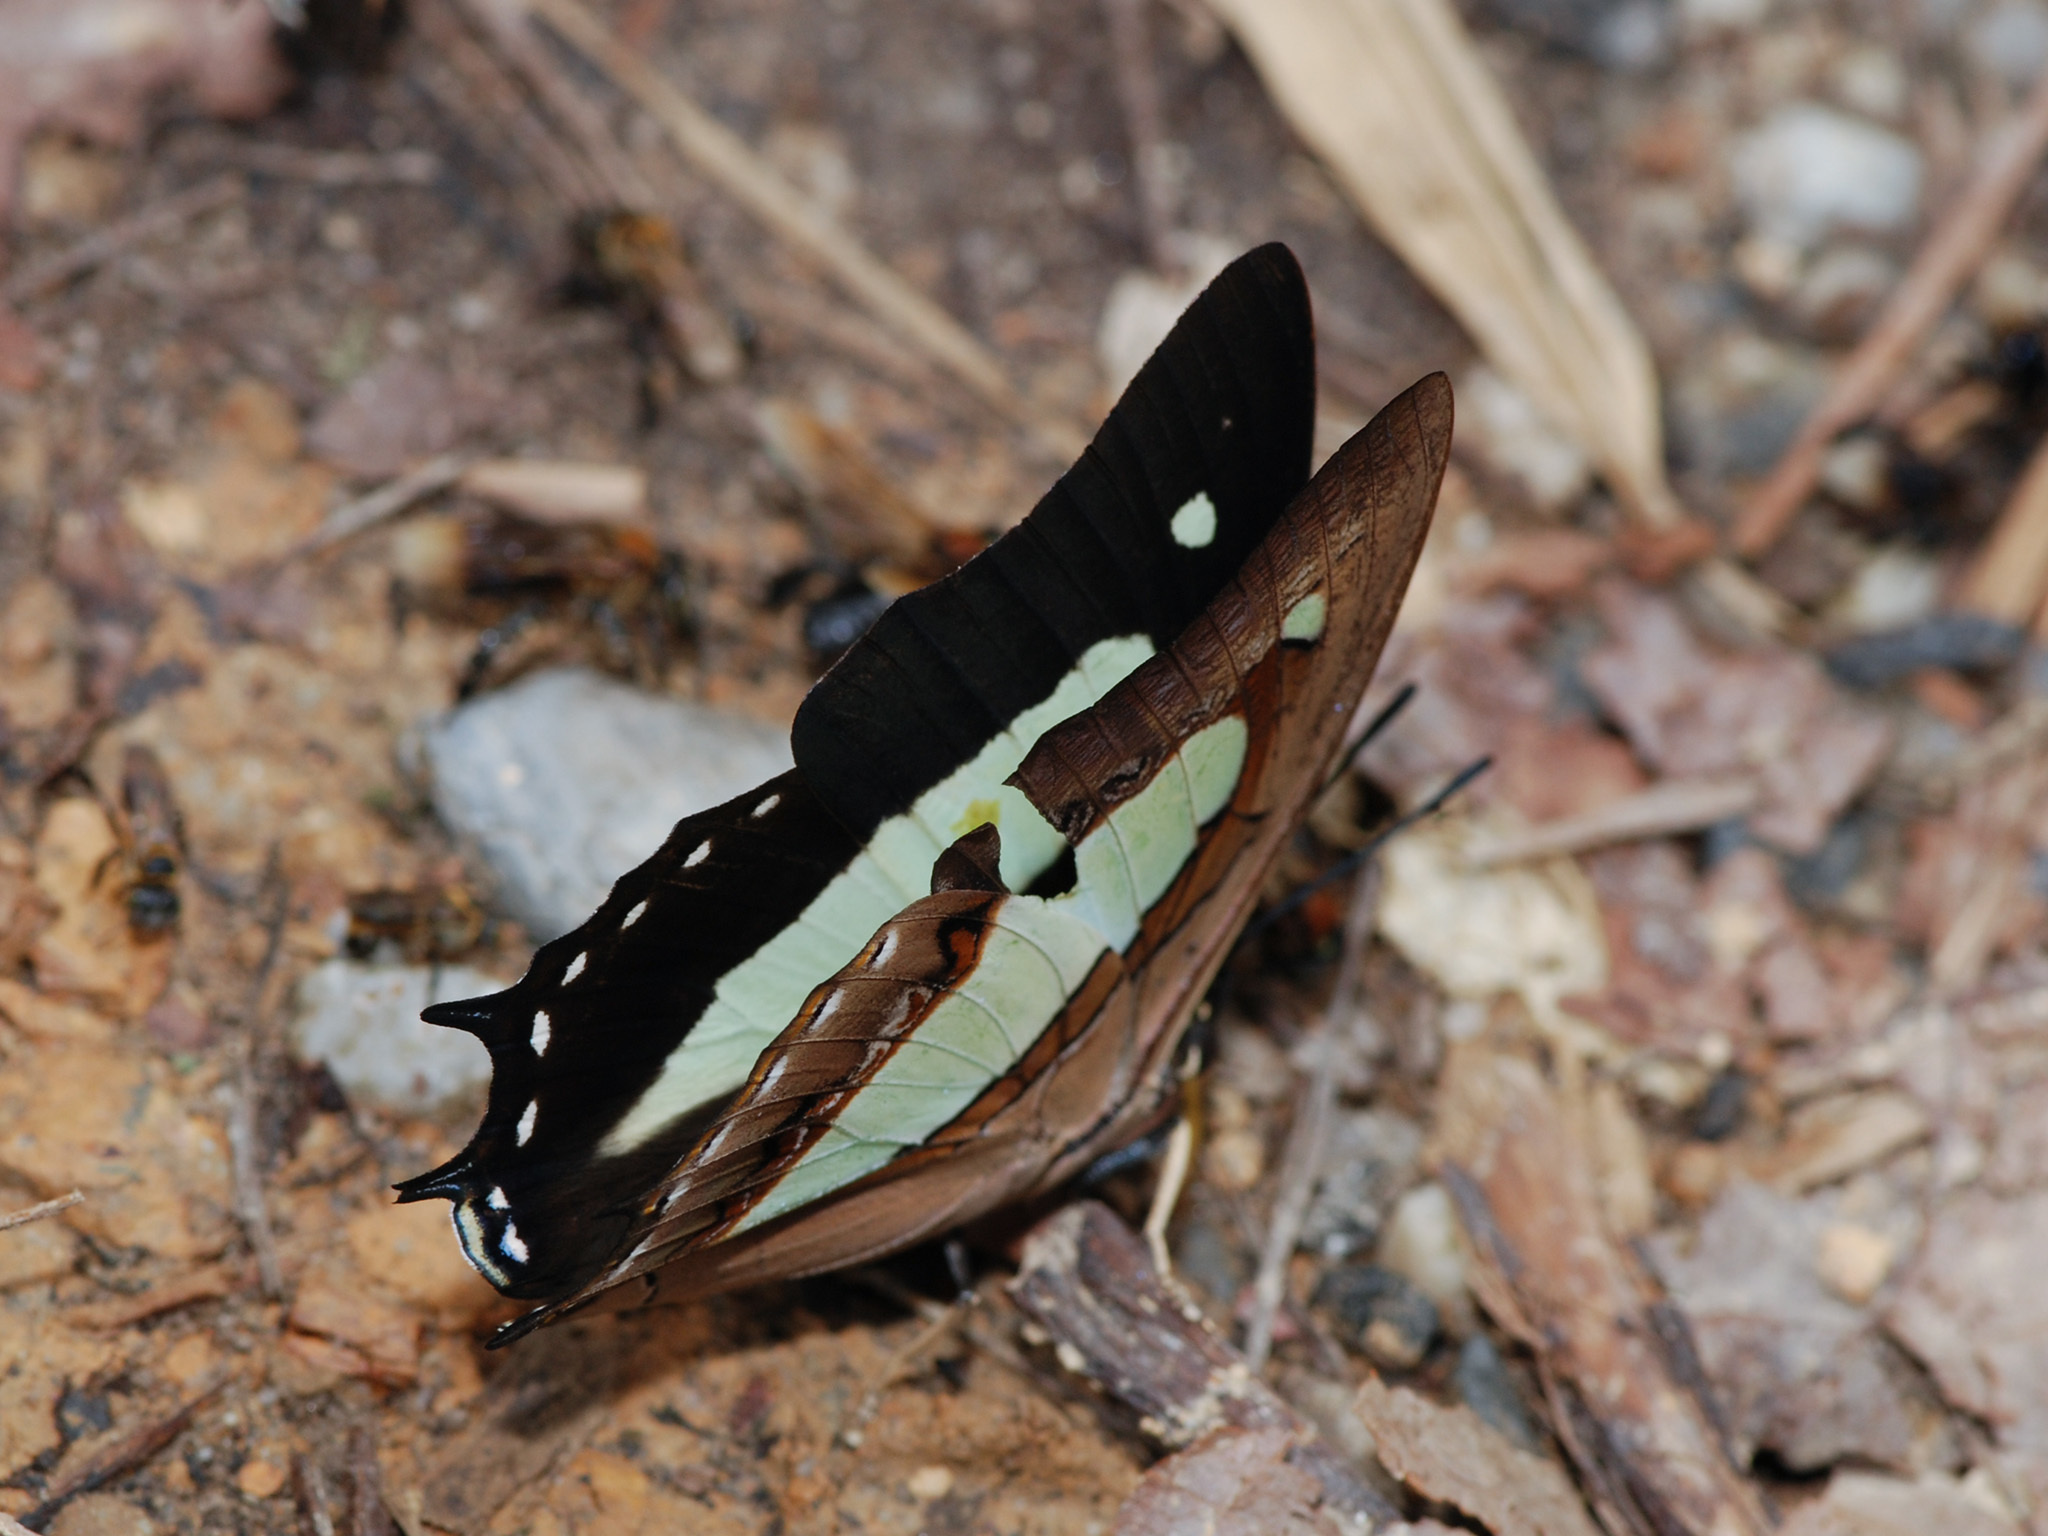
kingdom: Animalia
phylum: Arthropoda
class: Insecta
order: Lepidoptera
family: Nymphalidae
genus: Polyura
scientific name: Polyura athamas
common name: Common nawab
